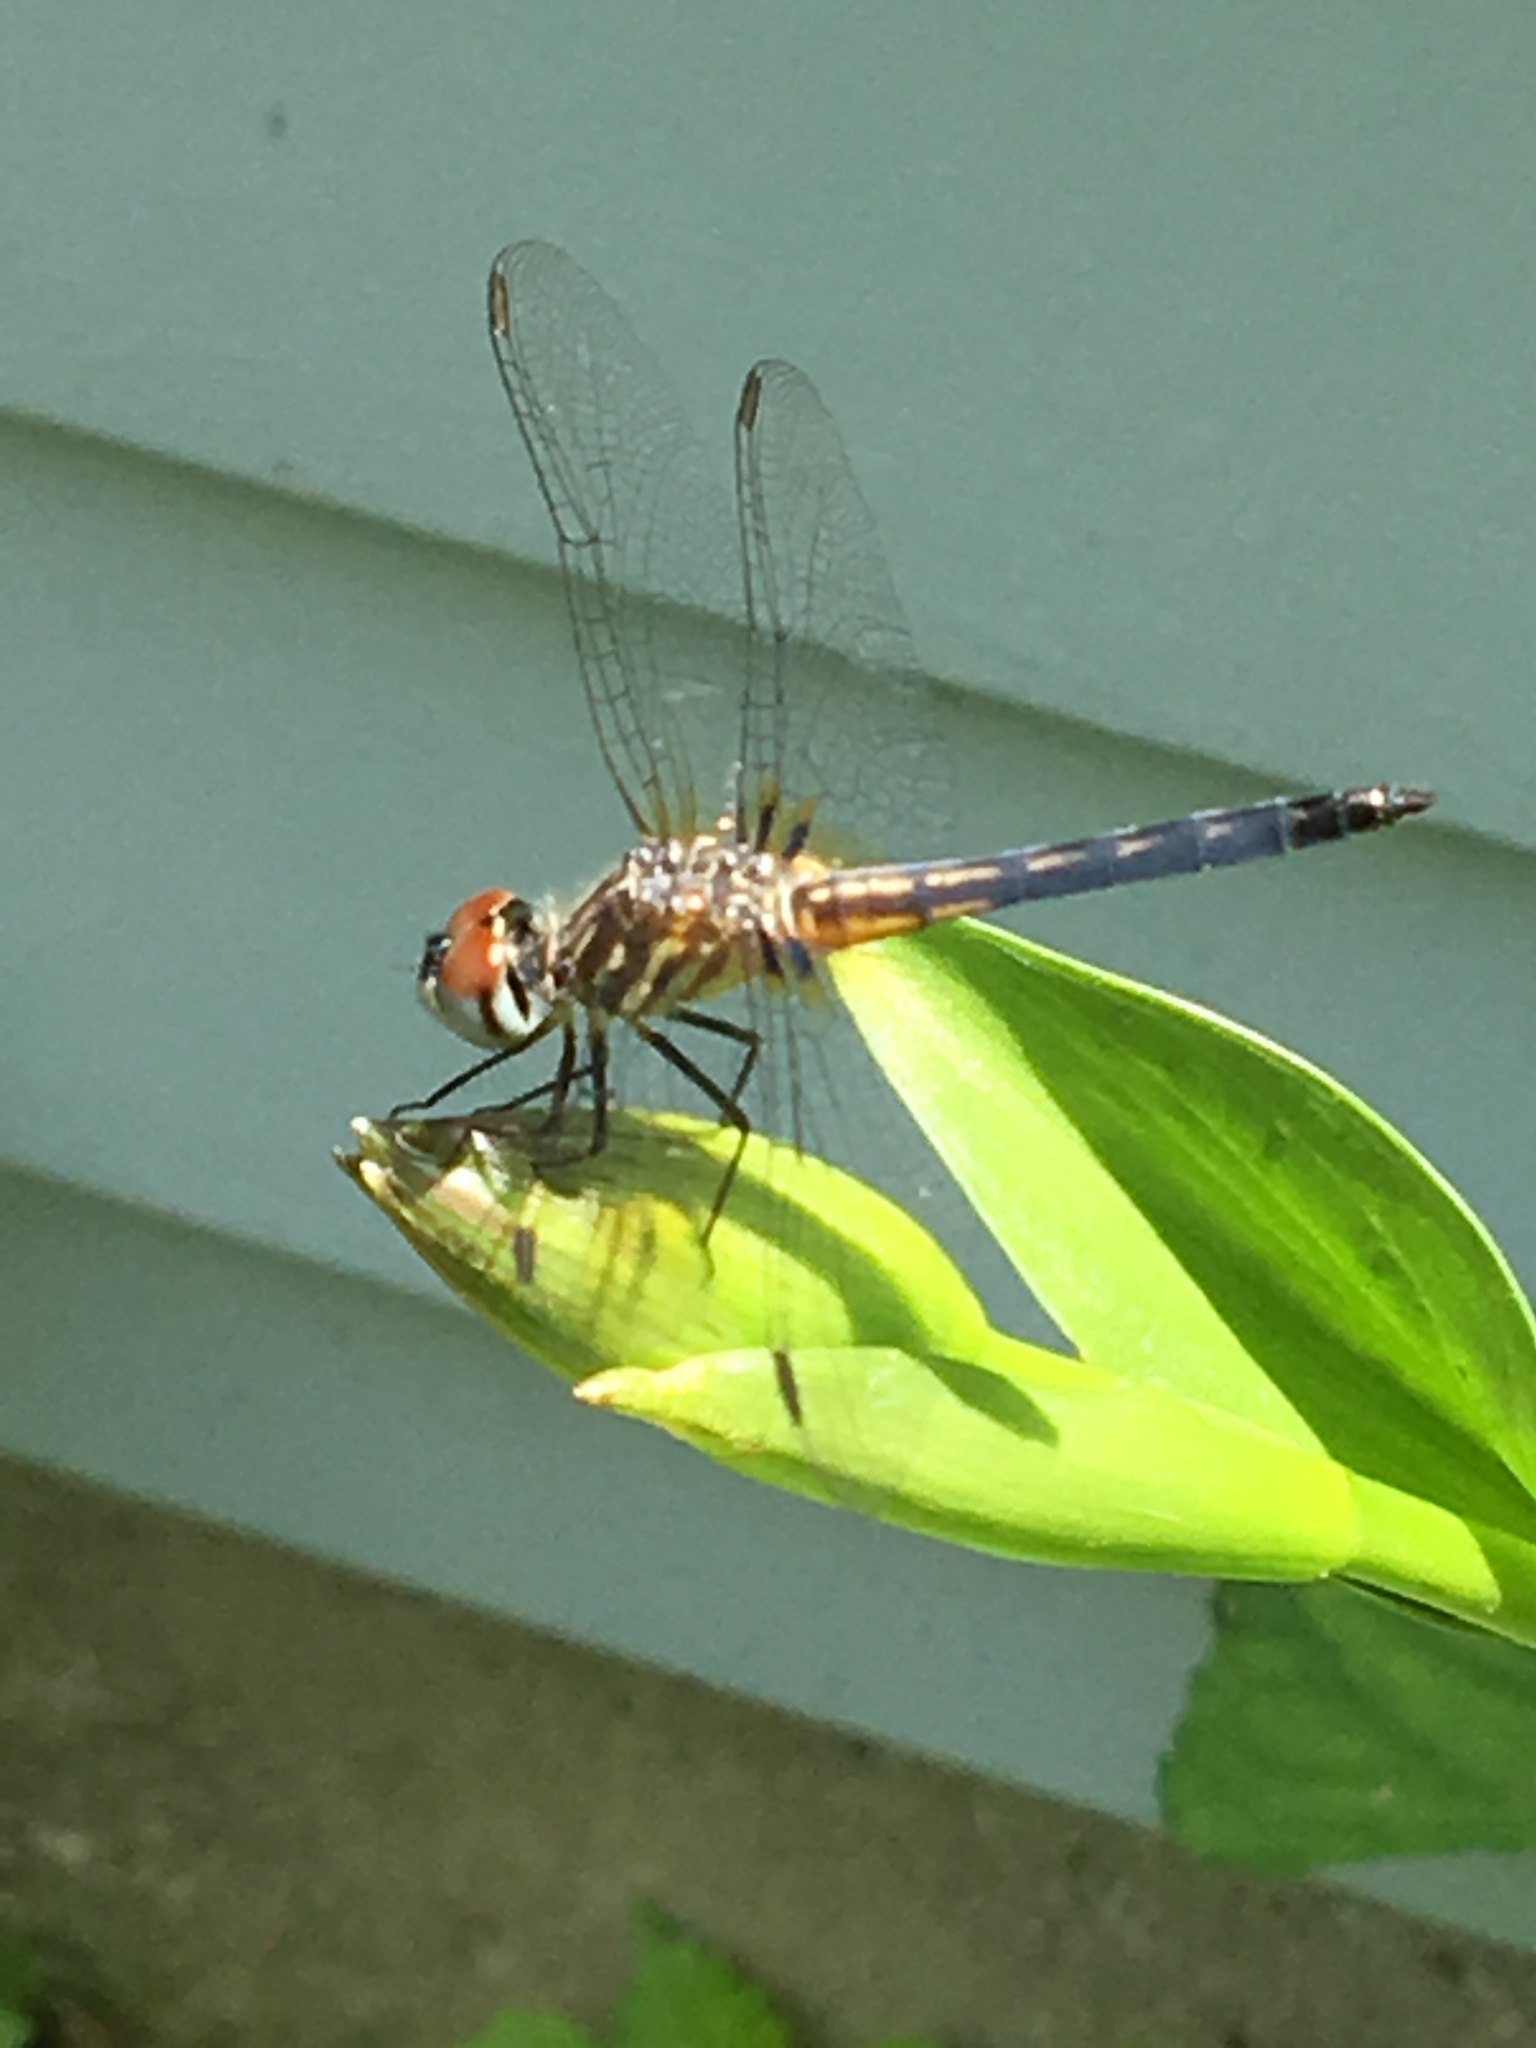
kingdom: Animalia
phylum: Arthropoda
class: Insecta
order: Odonata
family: Libellulidae
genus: Pachydiplax
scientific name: Pachydiplax longipennis
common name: Blue dasher
